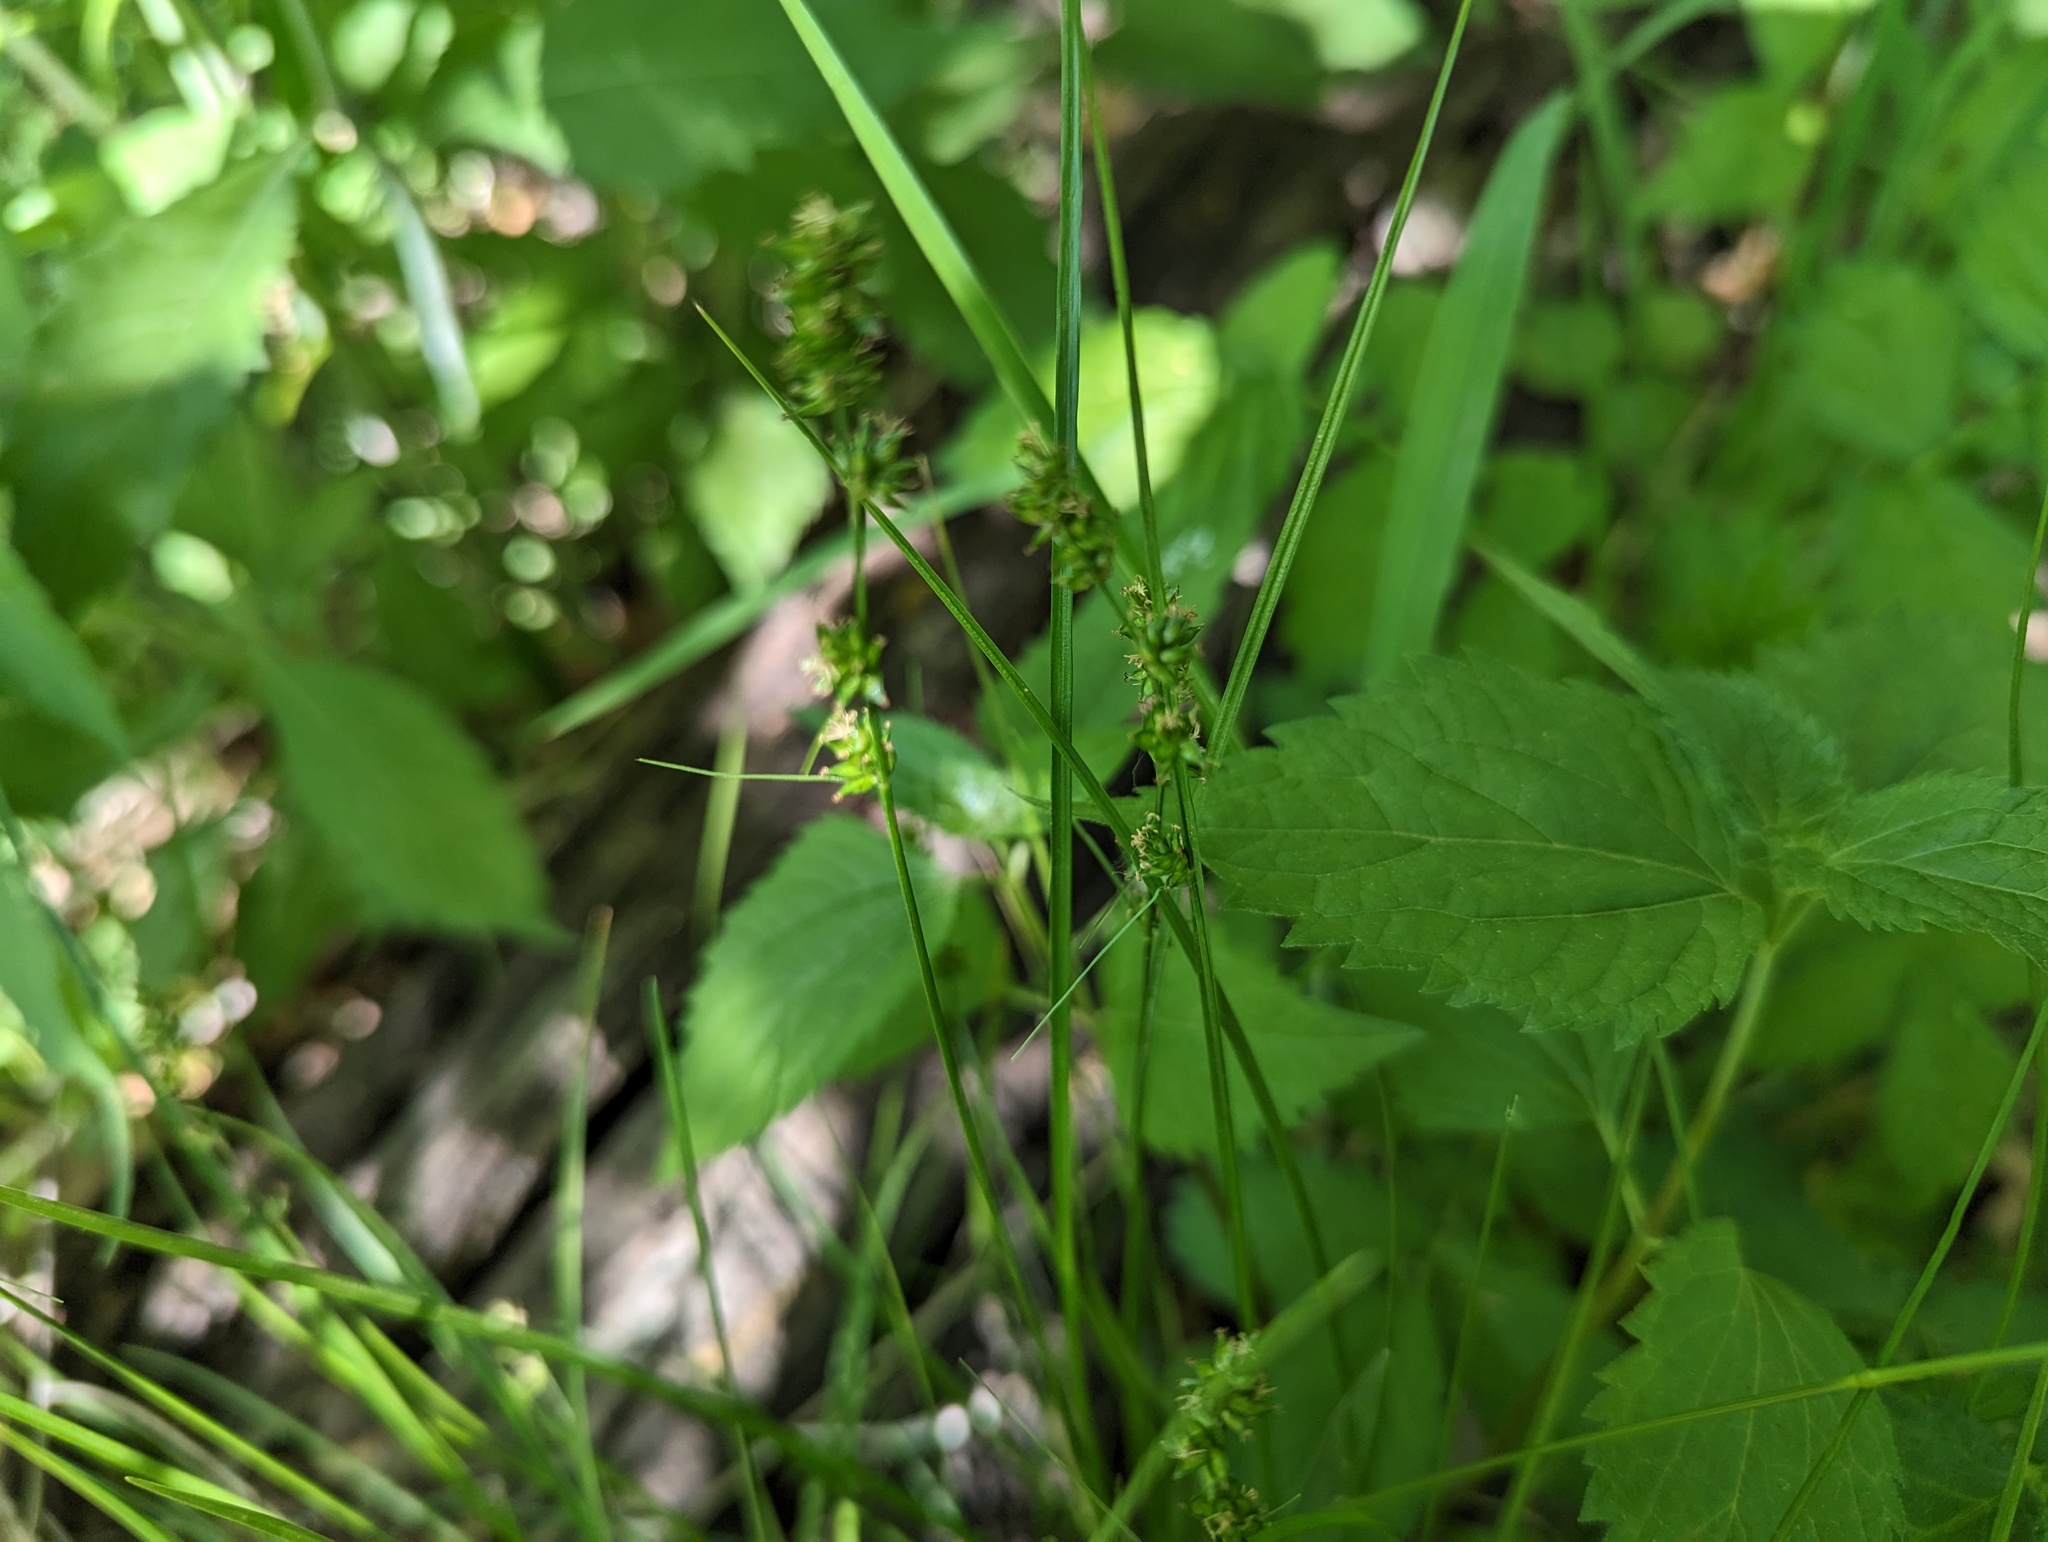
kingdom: Plantae
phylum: Tracheophyta
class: Liliopsida
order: Poales
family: Cyperaceae
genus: Carex
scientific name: Carex rosea
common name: Curly-styled wood sedge
